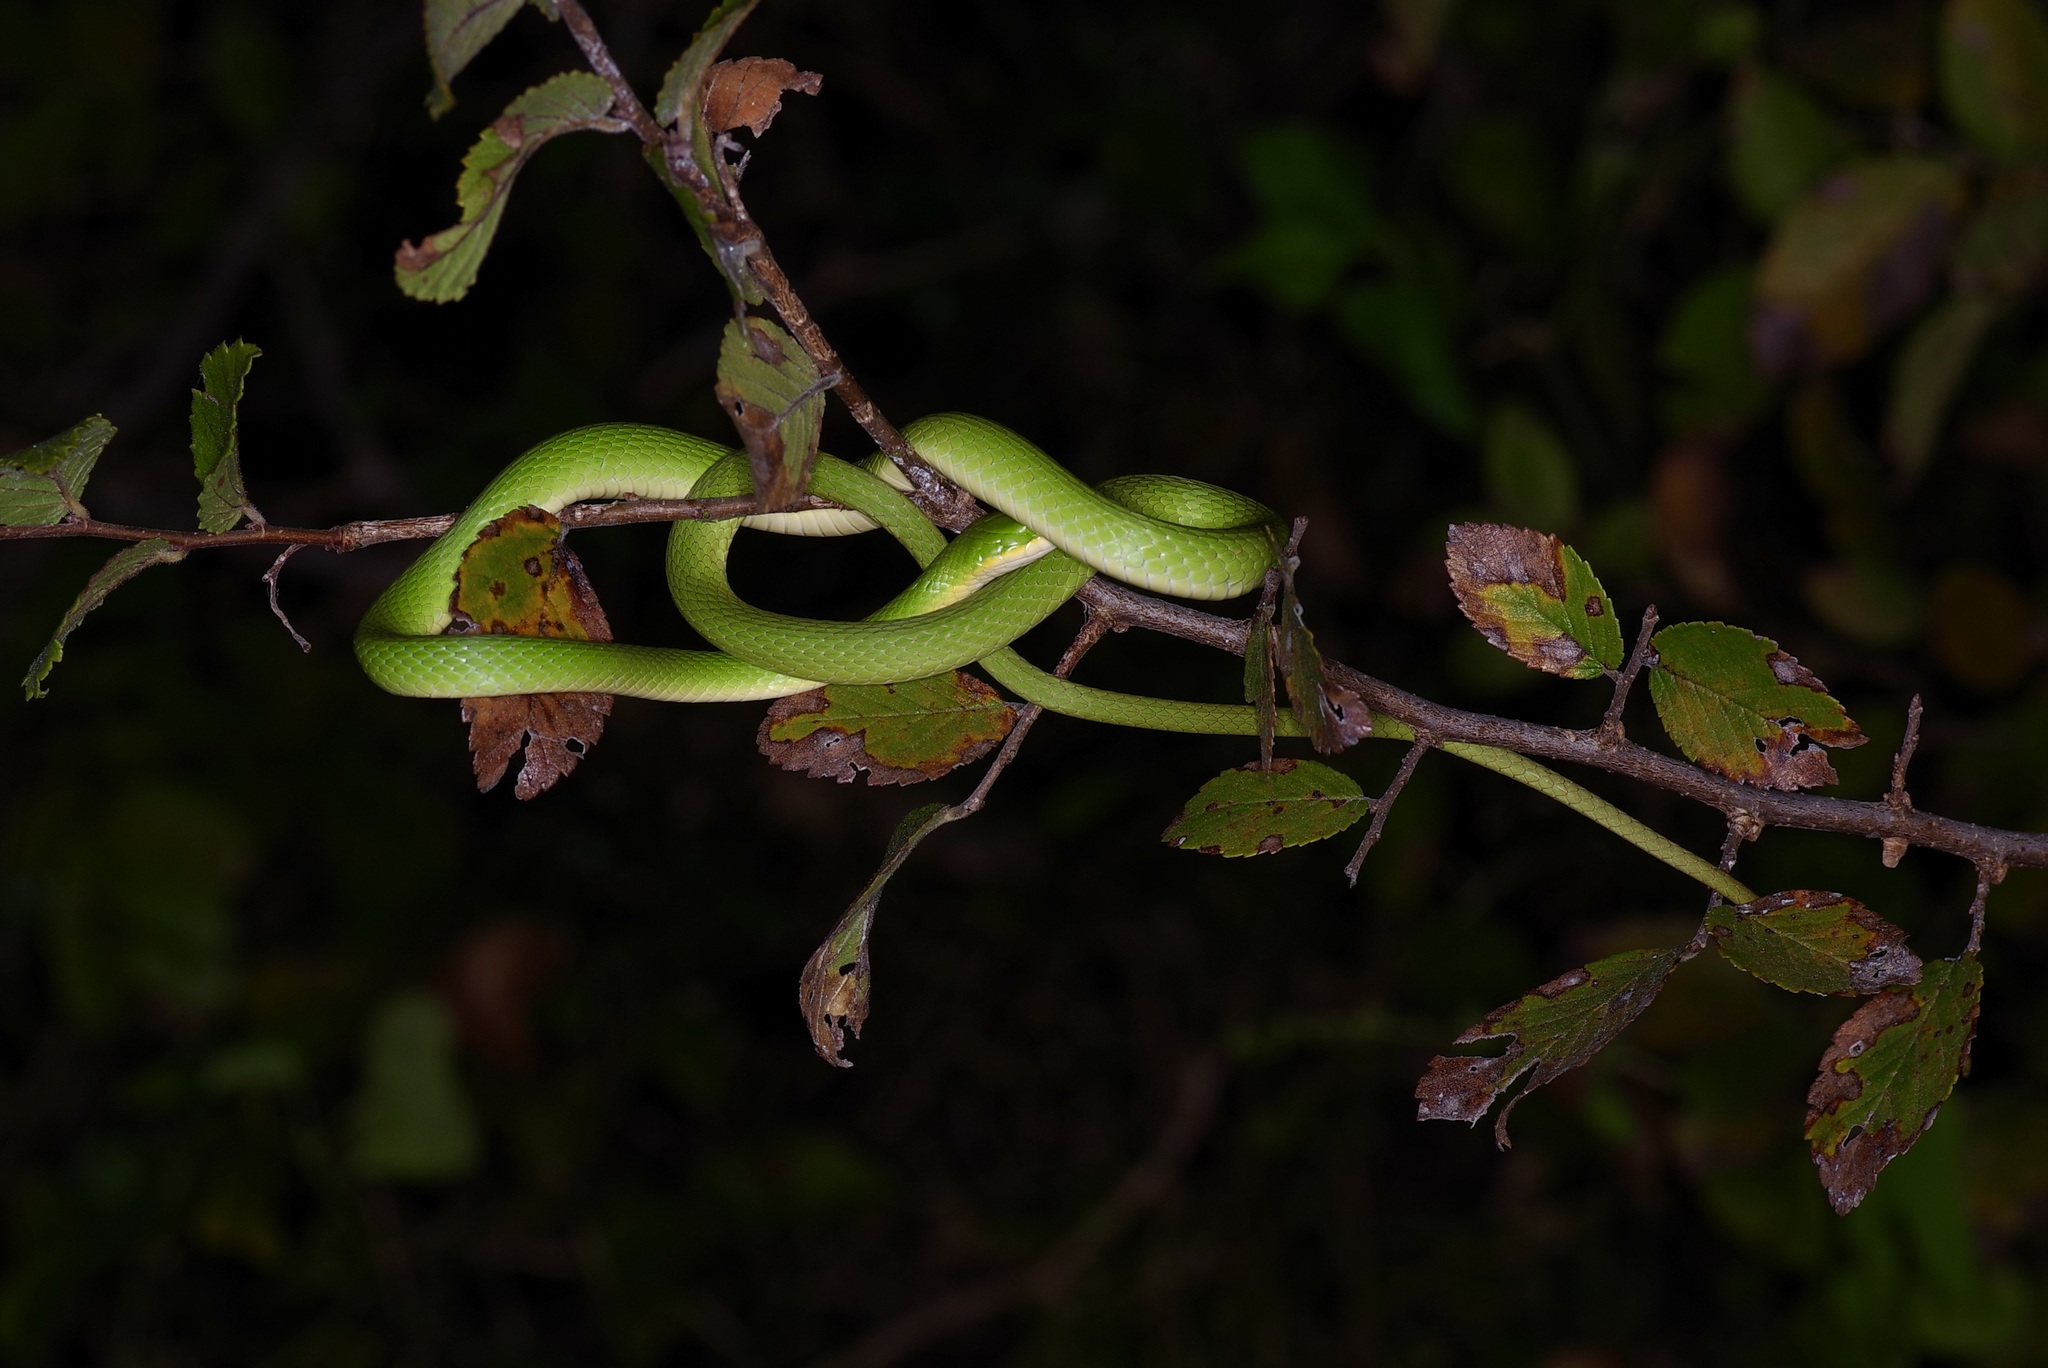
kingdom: Animalia
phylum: Chordata
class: Squamata
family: Colubridae
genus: Opheodrys
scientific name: Opheodrys aestivus
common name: Rough greensnake
